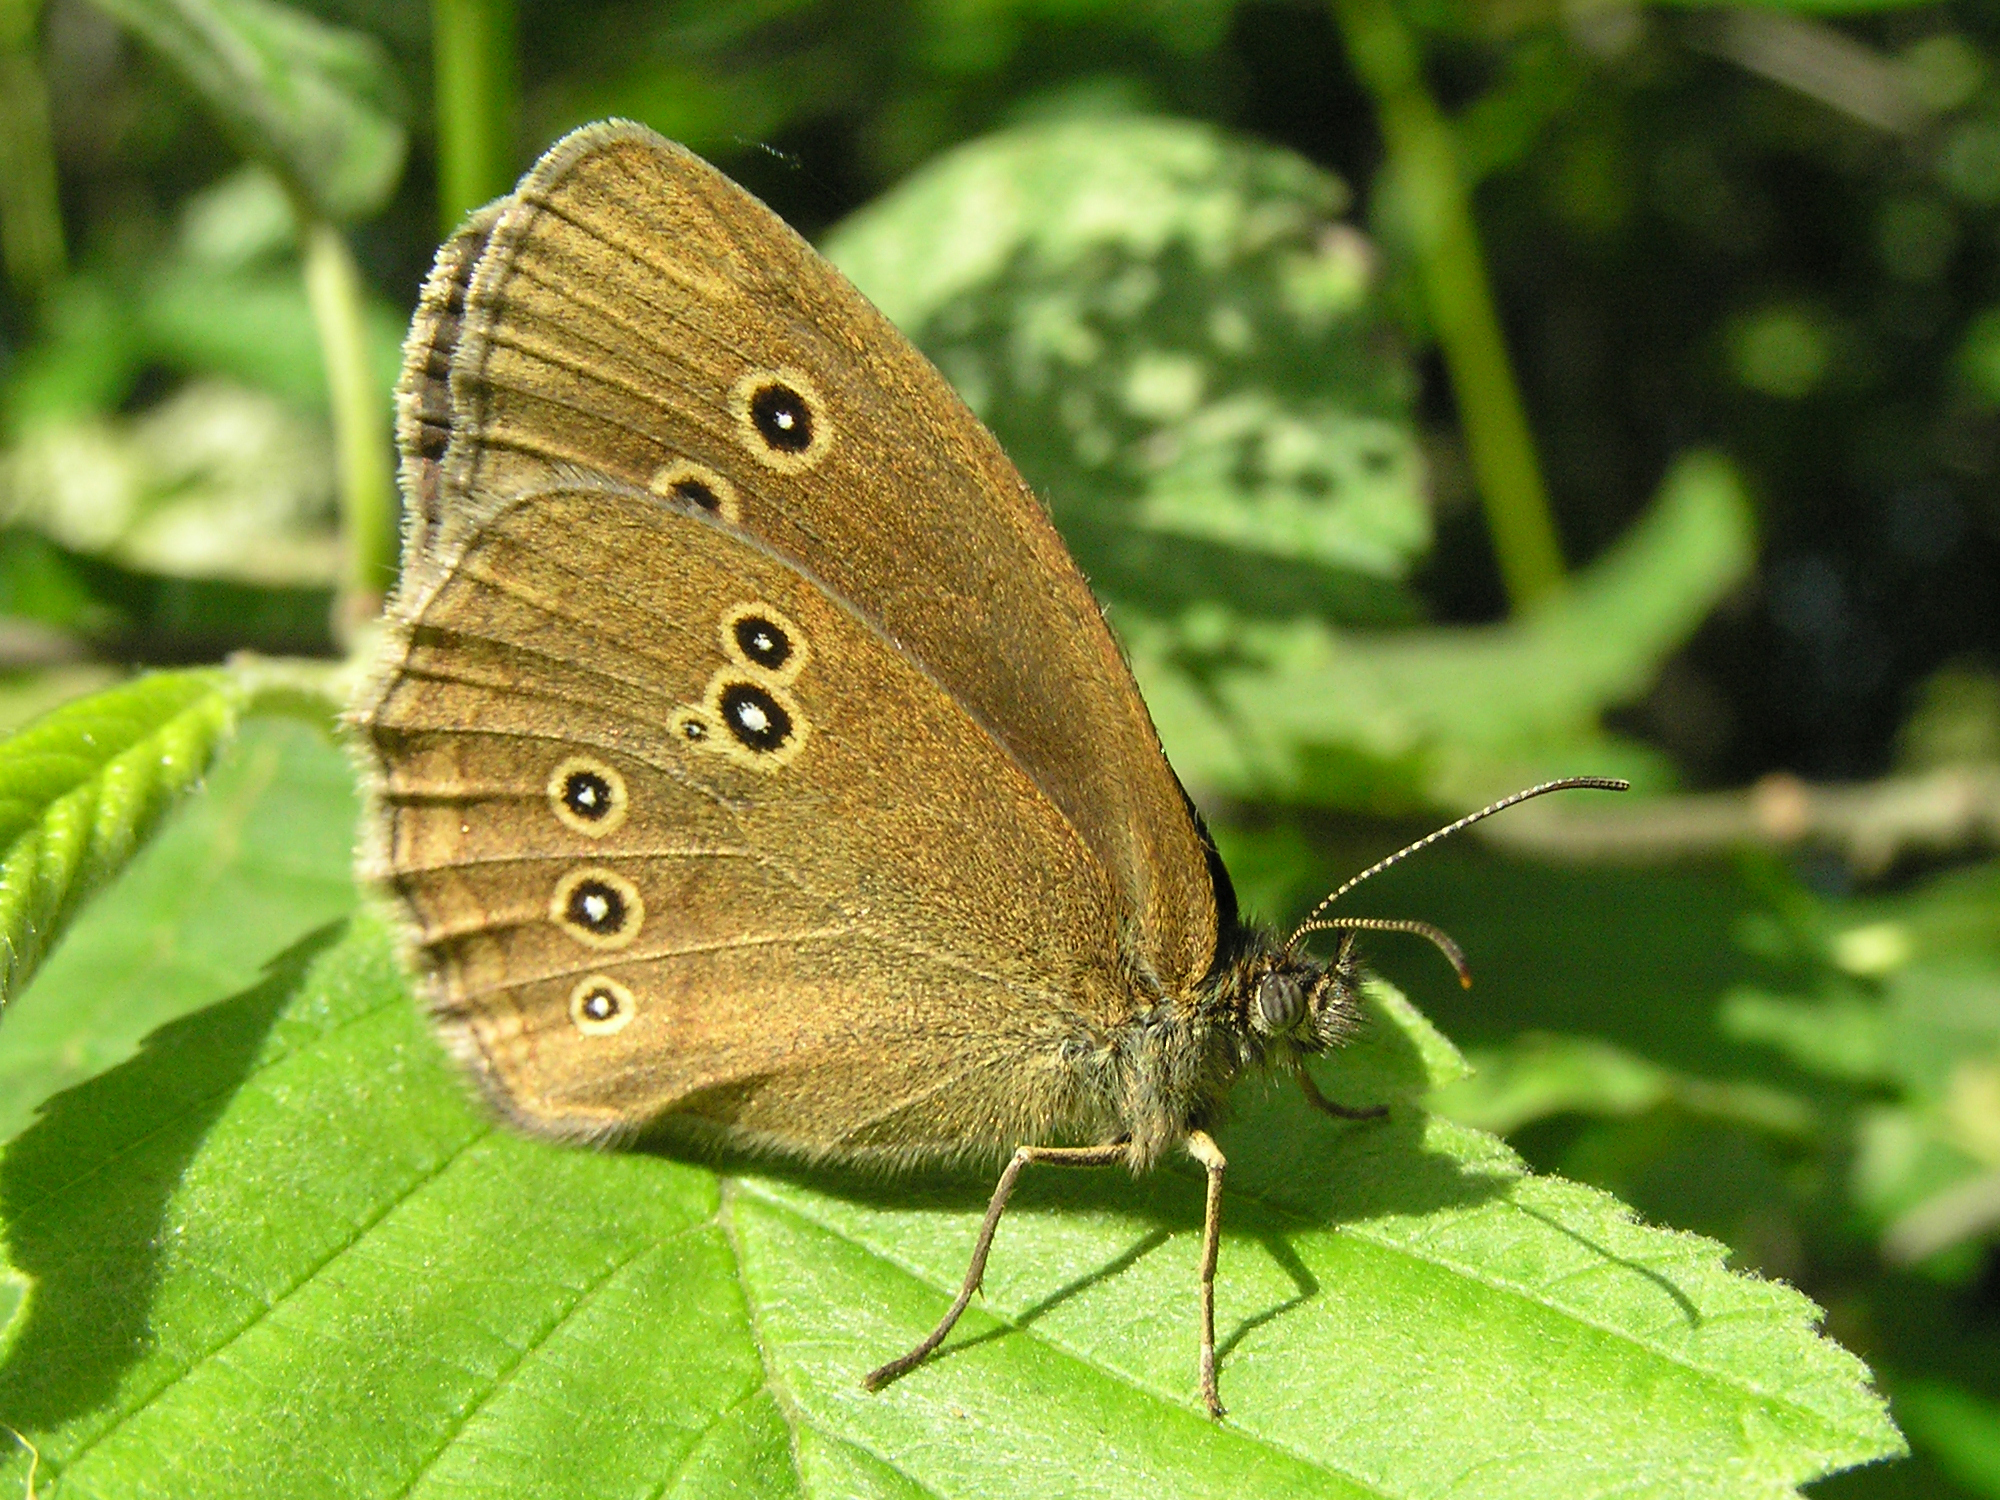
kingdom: Animalia
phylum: Arthropoda
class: Insecta
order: Lepidoptera
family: Nymphalidae
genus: Aphantopus
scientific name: Aphantopus hyperantus
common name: Ringlet
